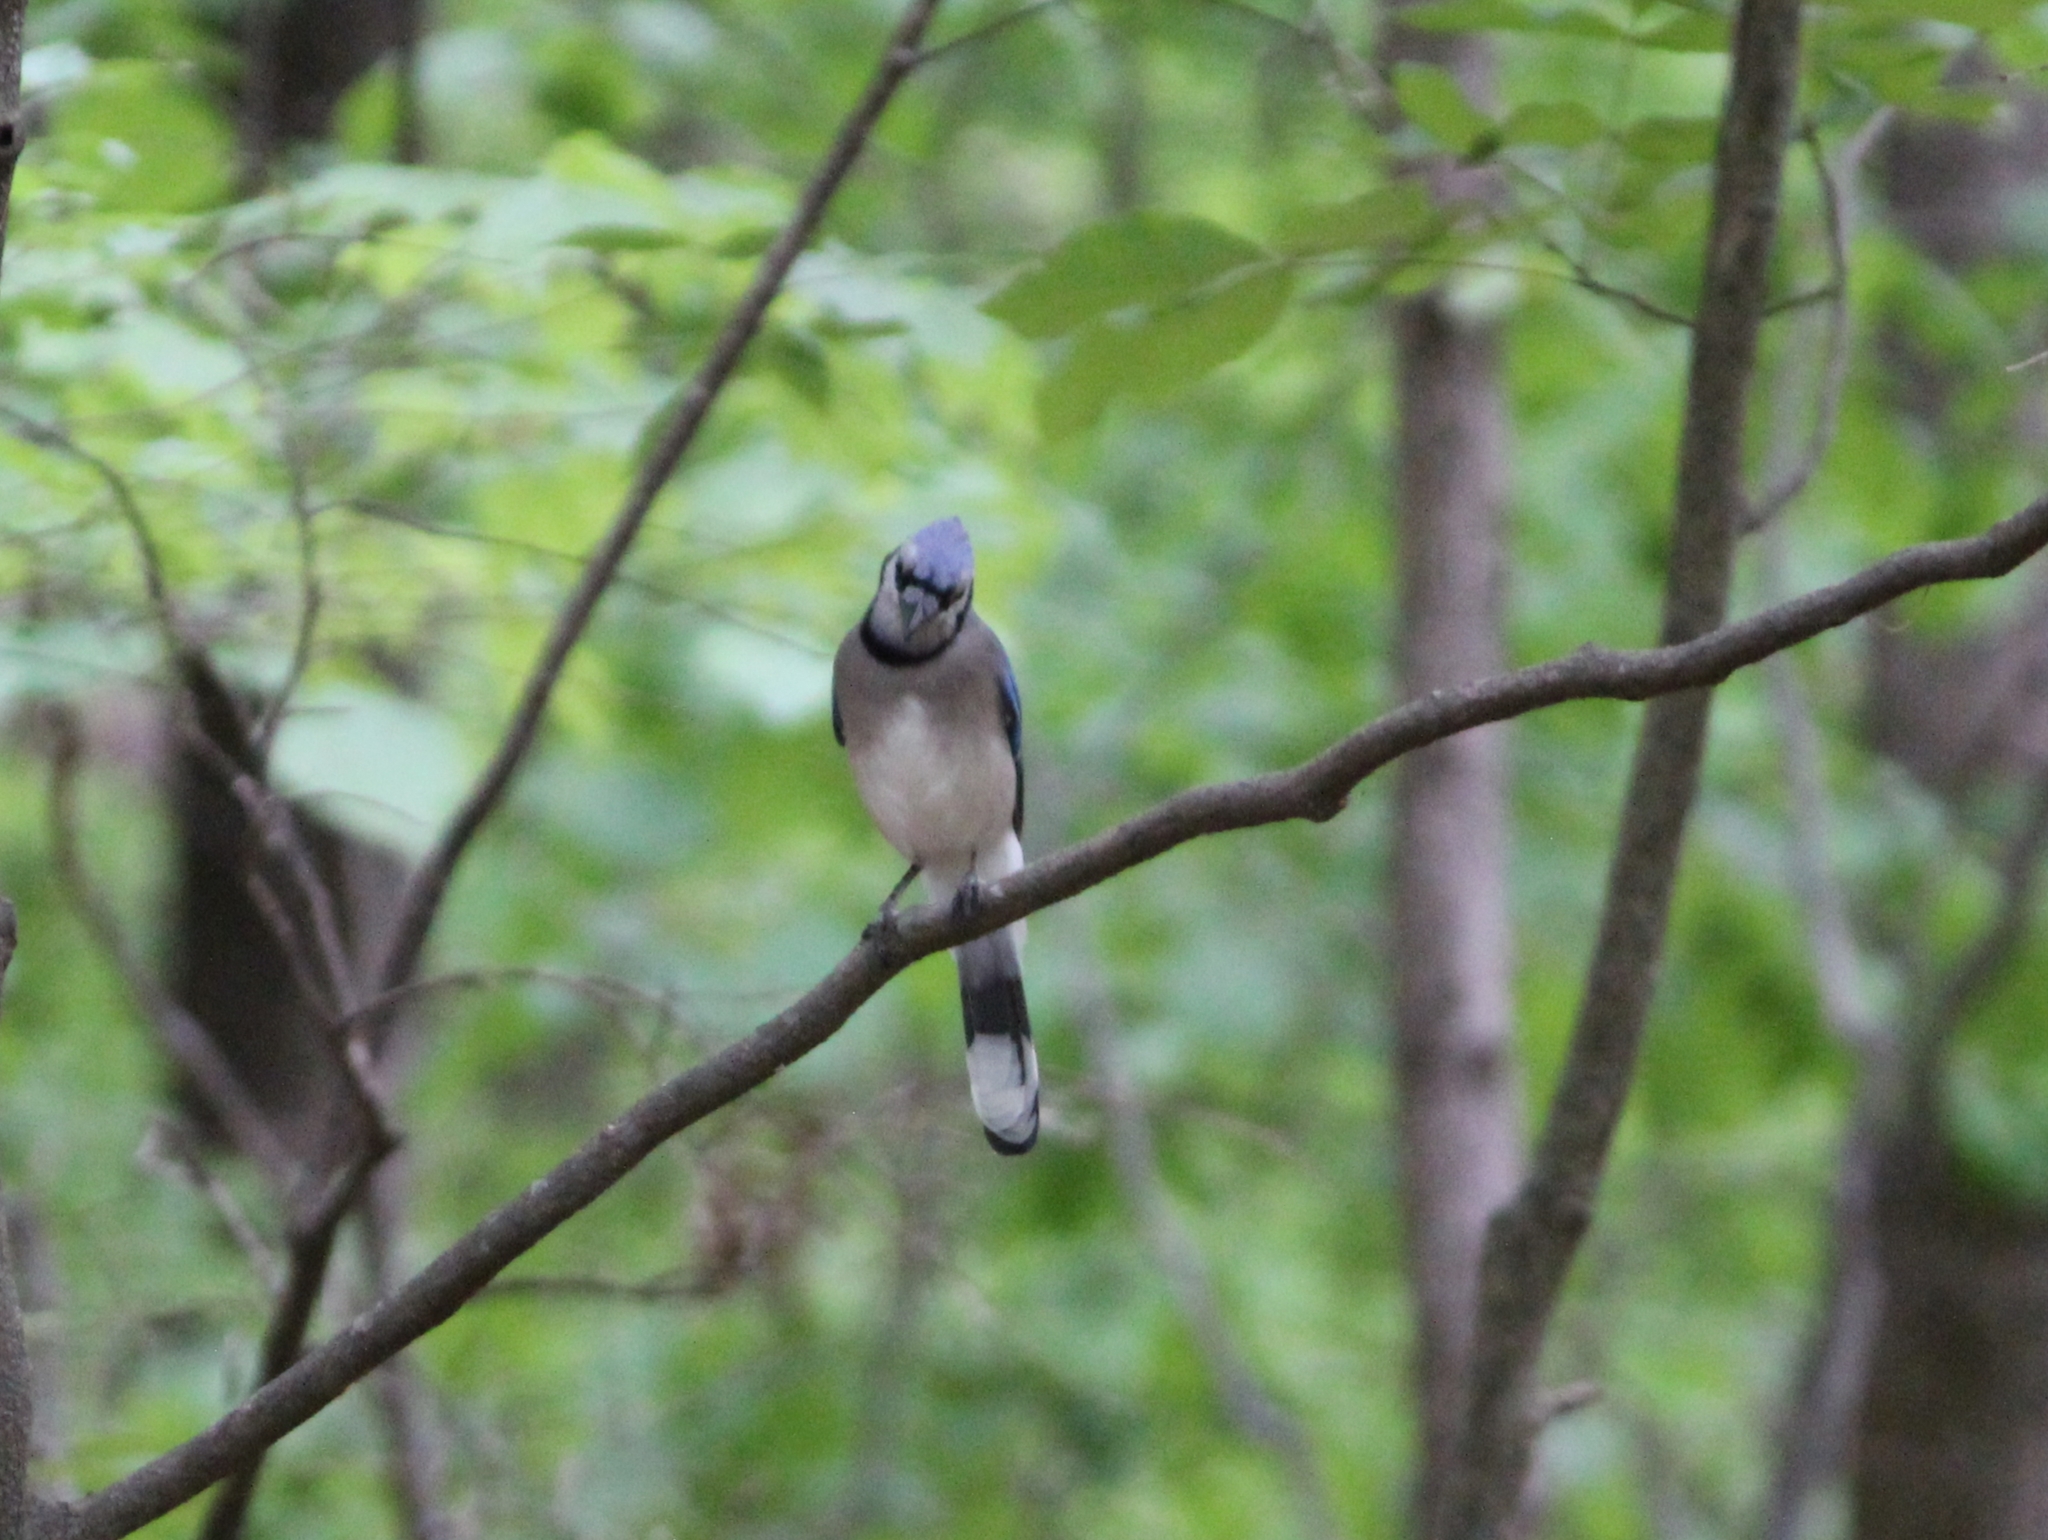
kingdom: Animalia
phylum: Chordata
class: Aves
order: Passeriformes
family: Corvidae
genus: Cyanocitta
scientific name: Cyanocitta cristata
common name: Blue jay
